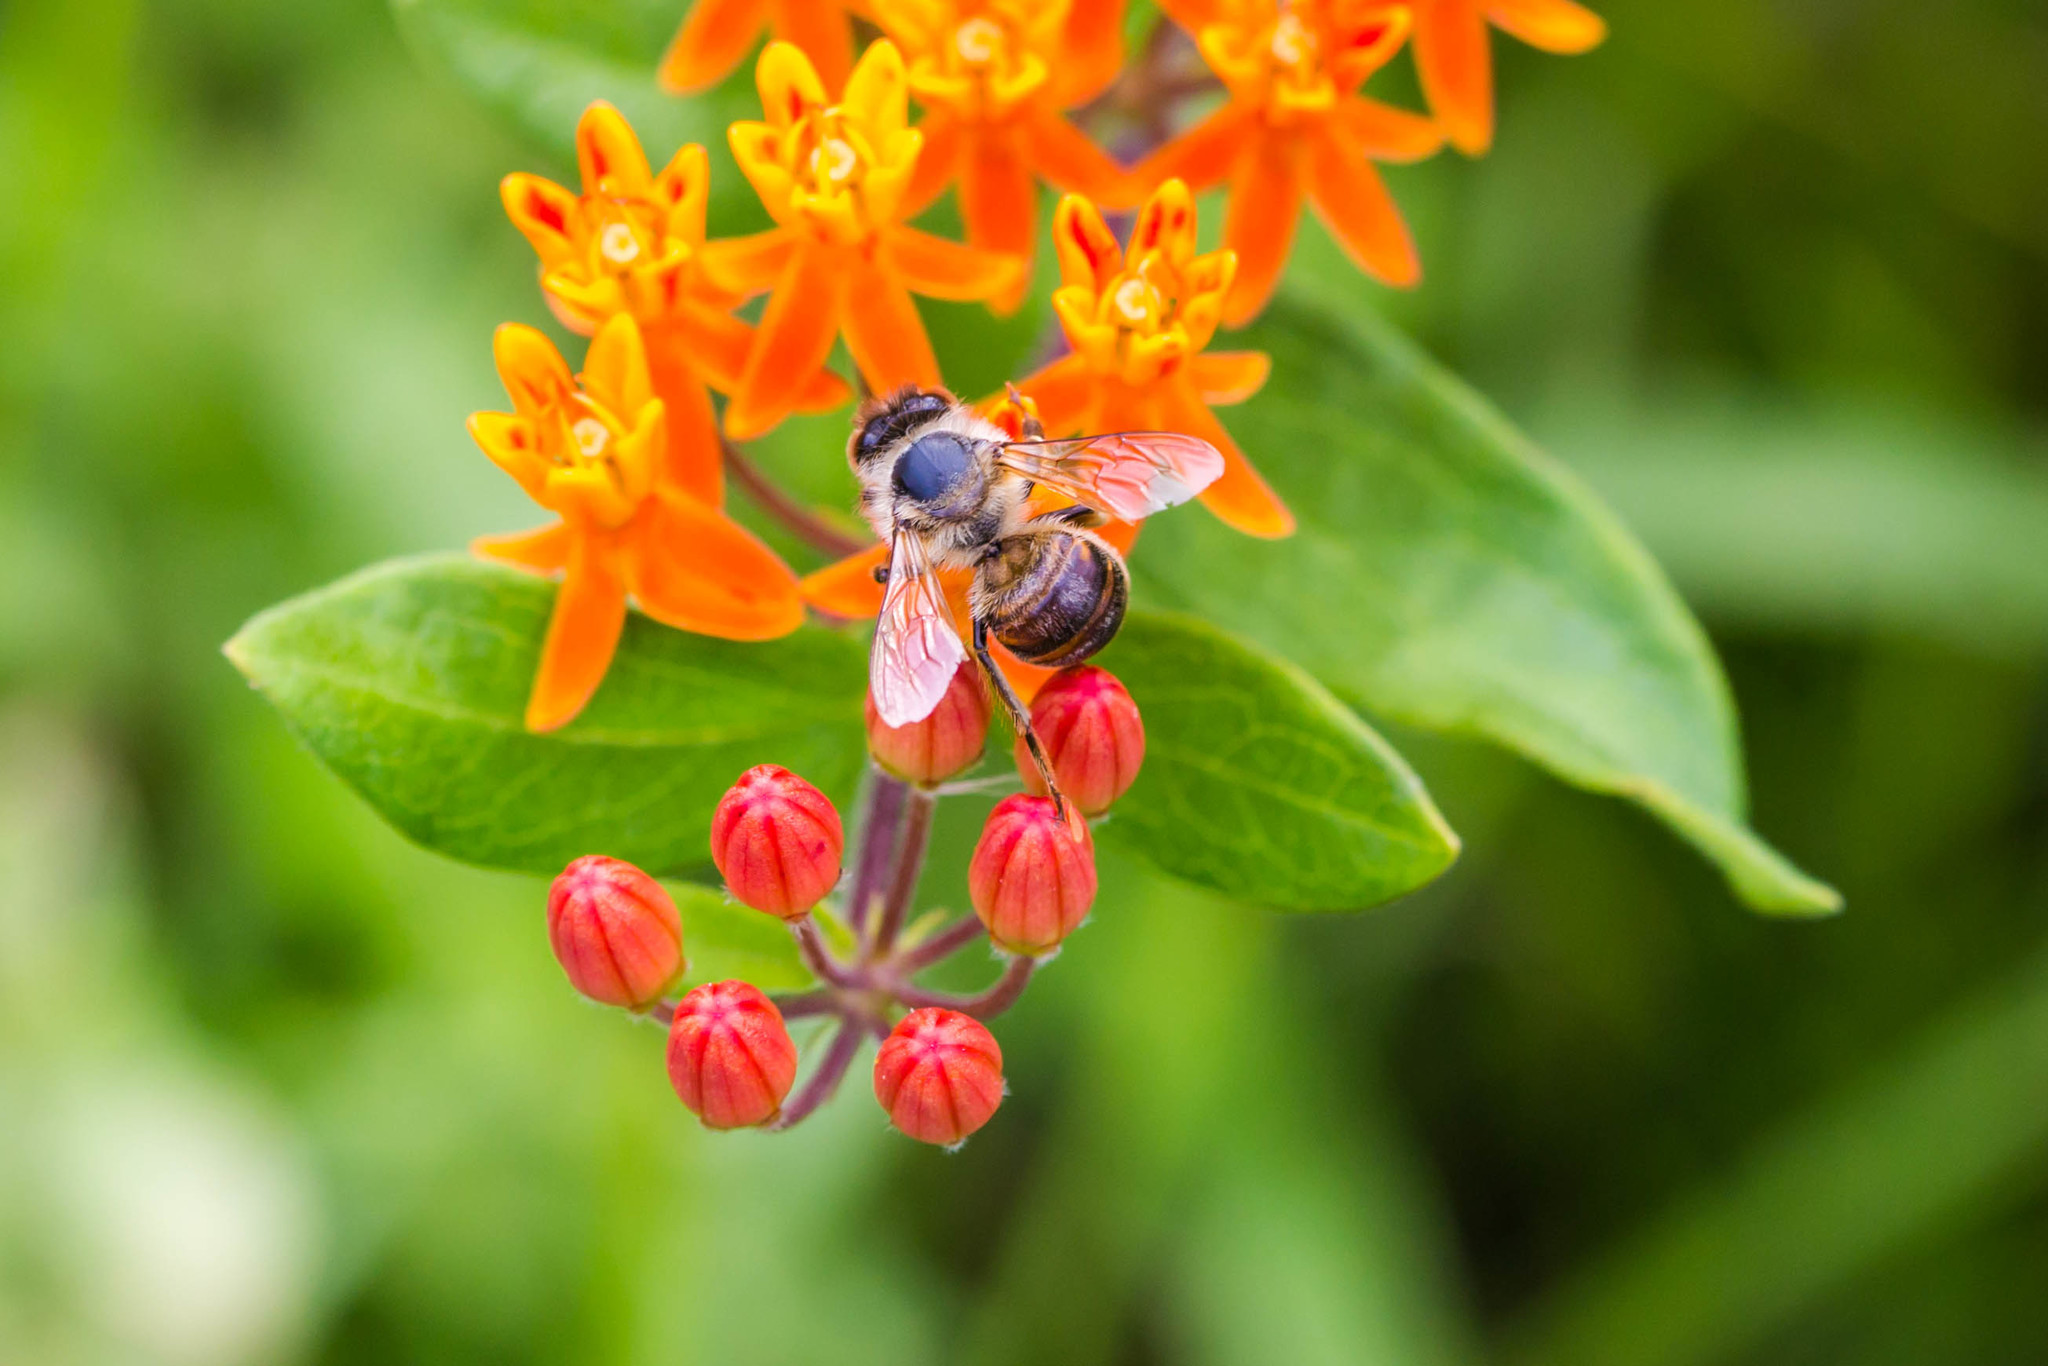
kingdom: Animalia
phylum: Arthropoda
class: Insecta
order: Hymenoptera
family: Apidae
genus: Apis
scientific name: Apis mellifera
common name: Honey bee
